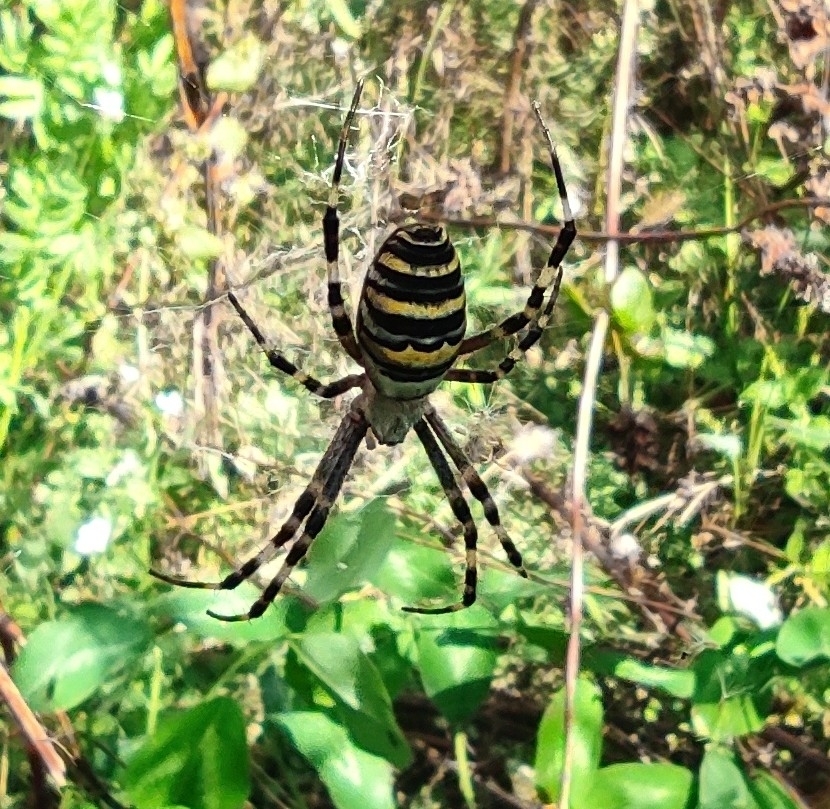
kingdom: Animalia
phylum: Arthropoda
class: Arachnida
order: Araneae
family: Araneidae
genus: Argiope
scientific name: Argiope bruennichi
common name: Wasp spider
